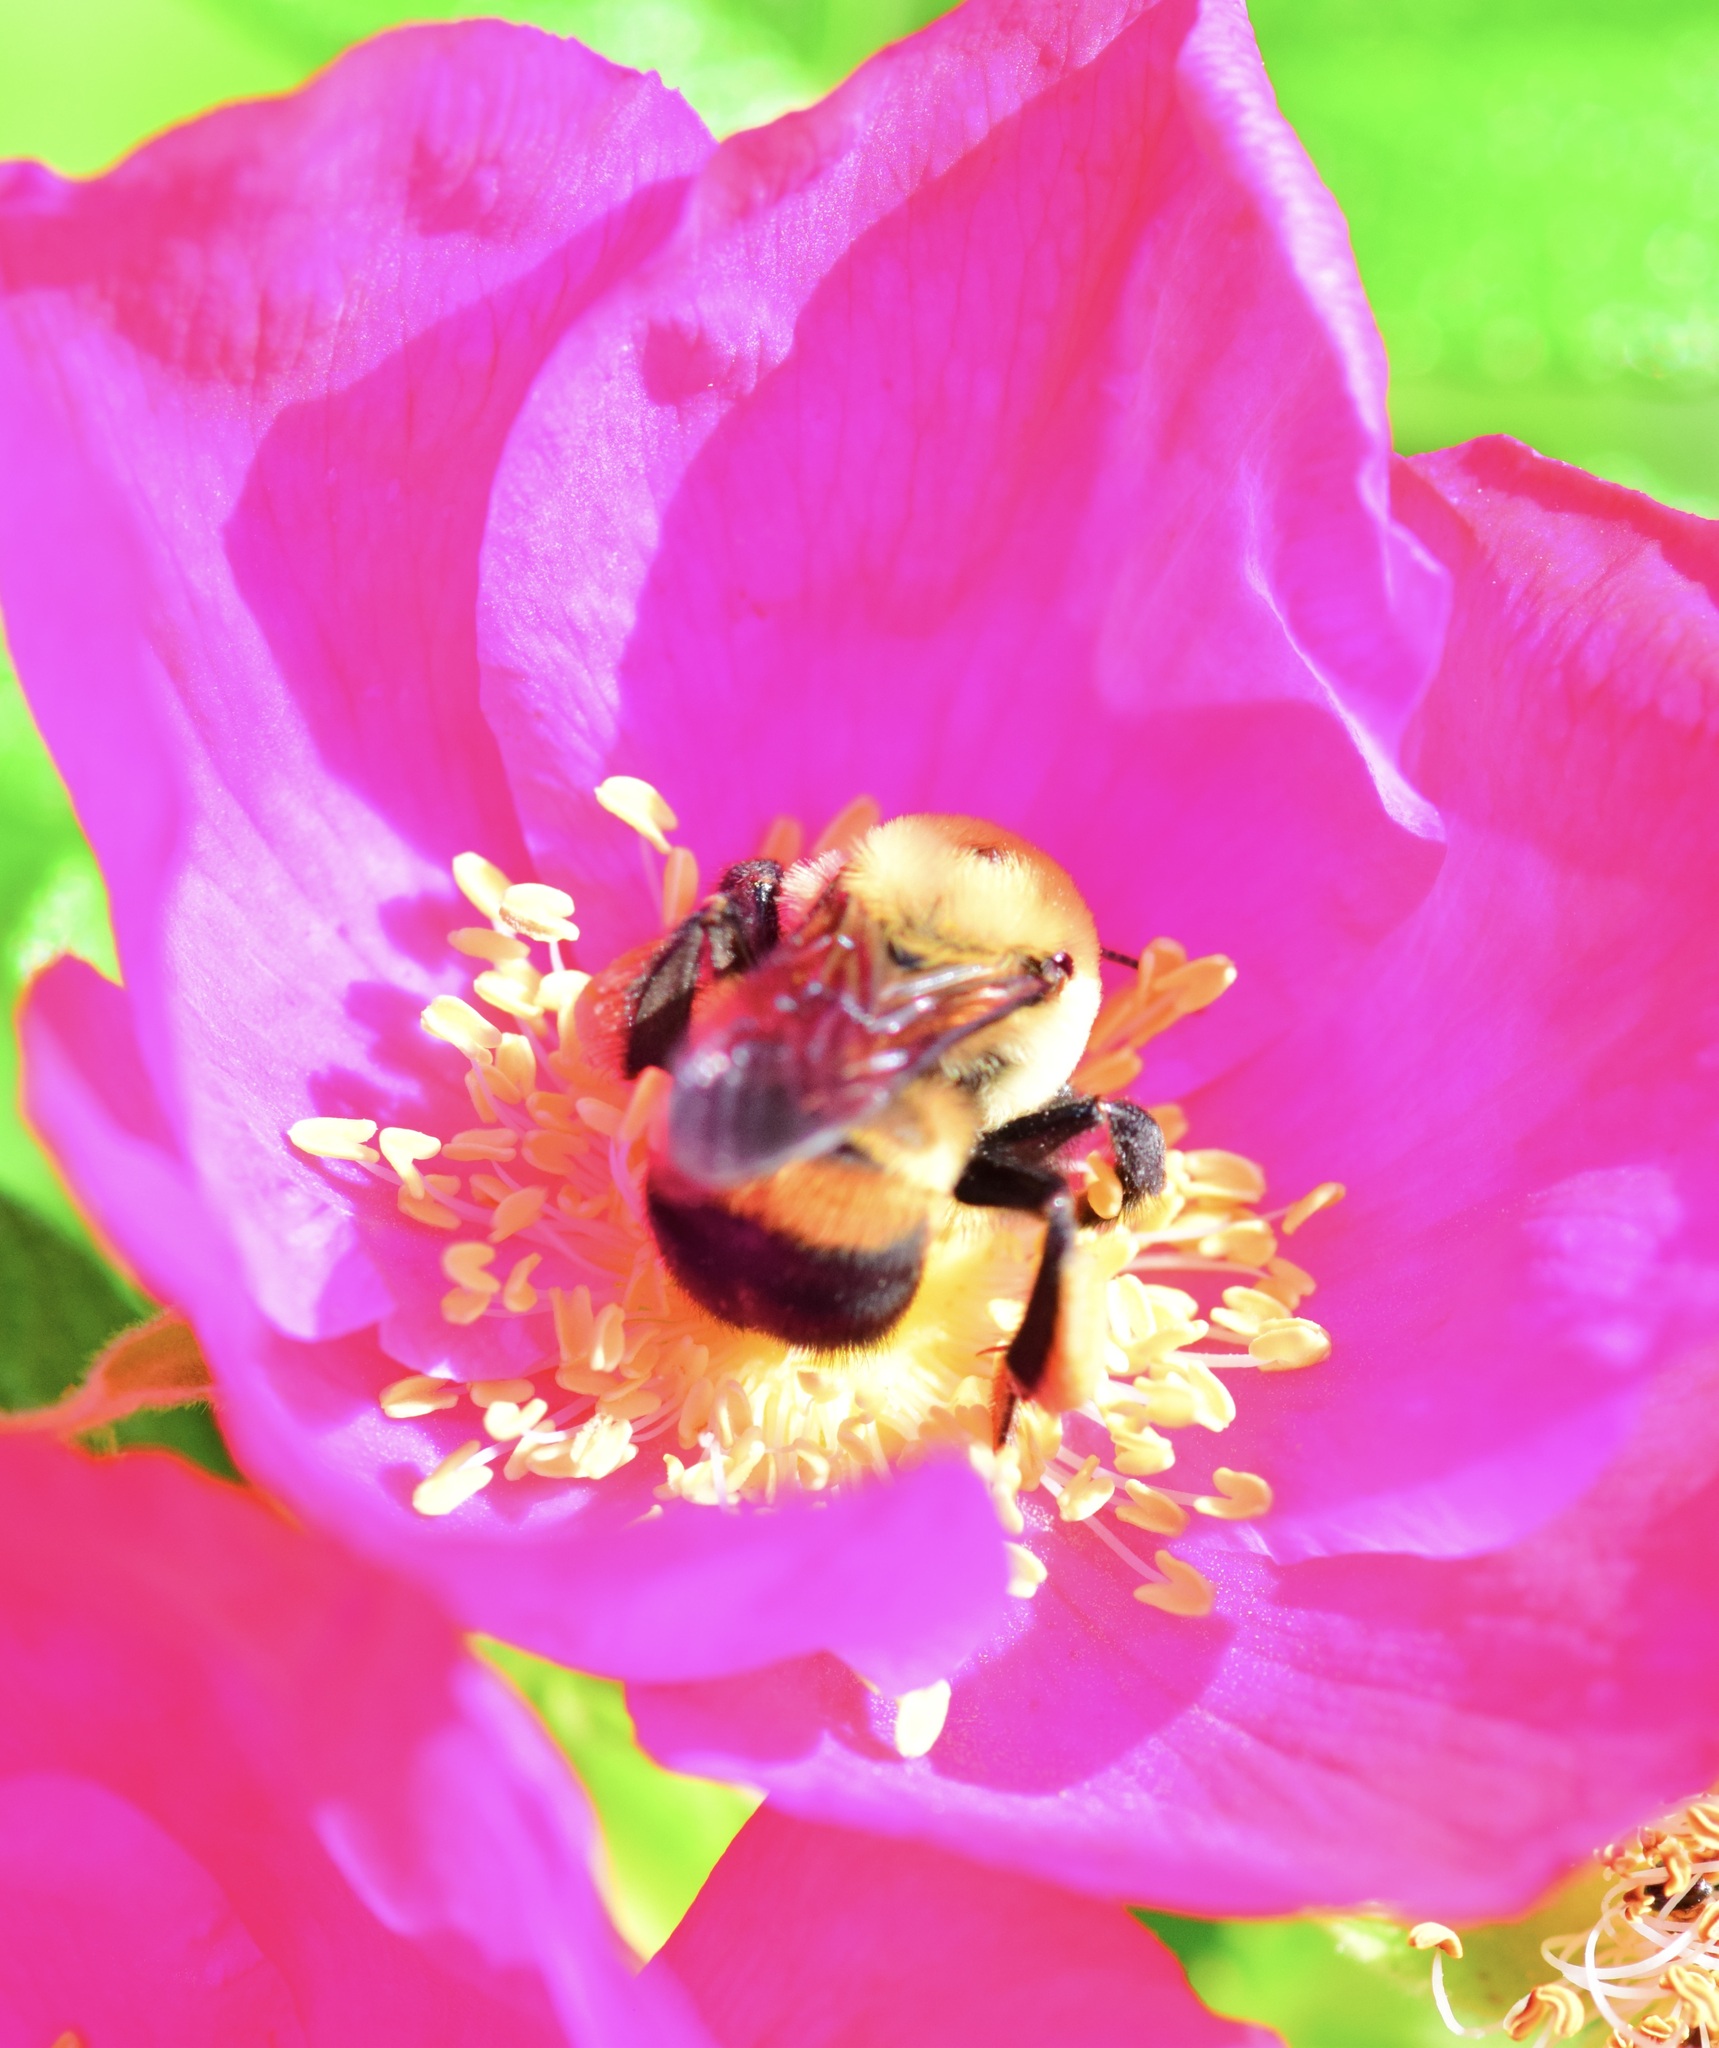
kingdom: Animalia
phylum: Arthropoda
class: Insecta
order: Hymenoptera
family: Apidae
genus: Bombus
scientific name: Bombus griseocollis
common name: Brown-belted bumble bee
